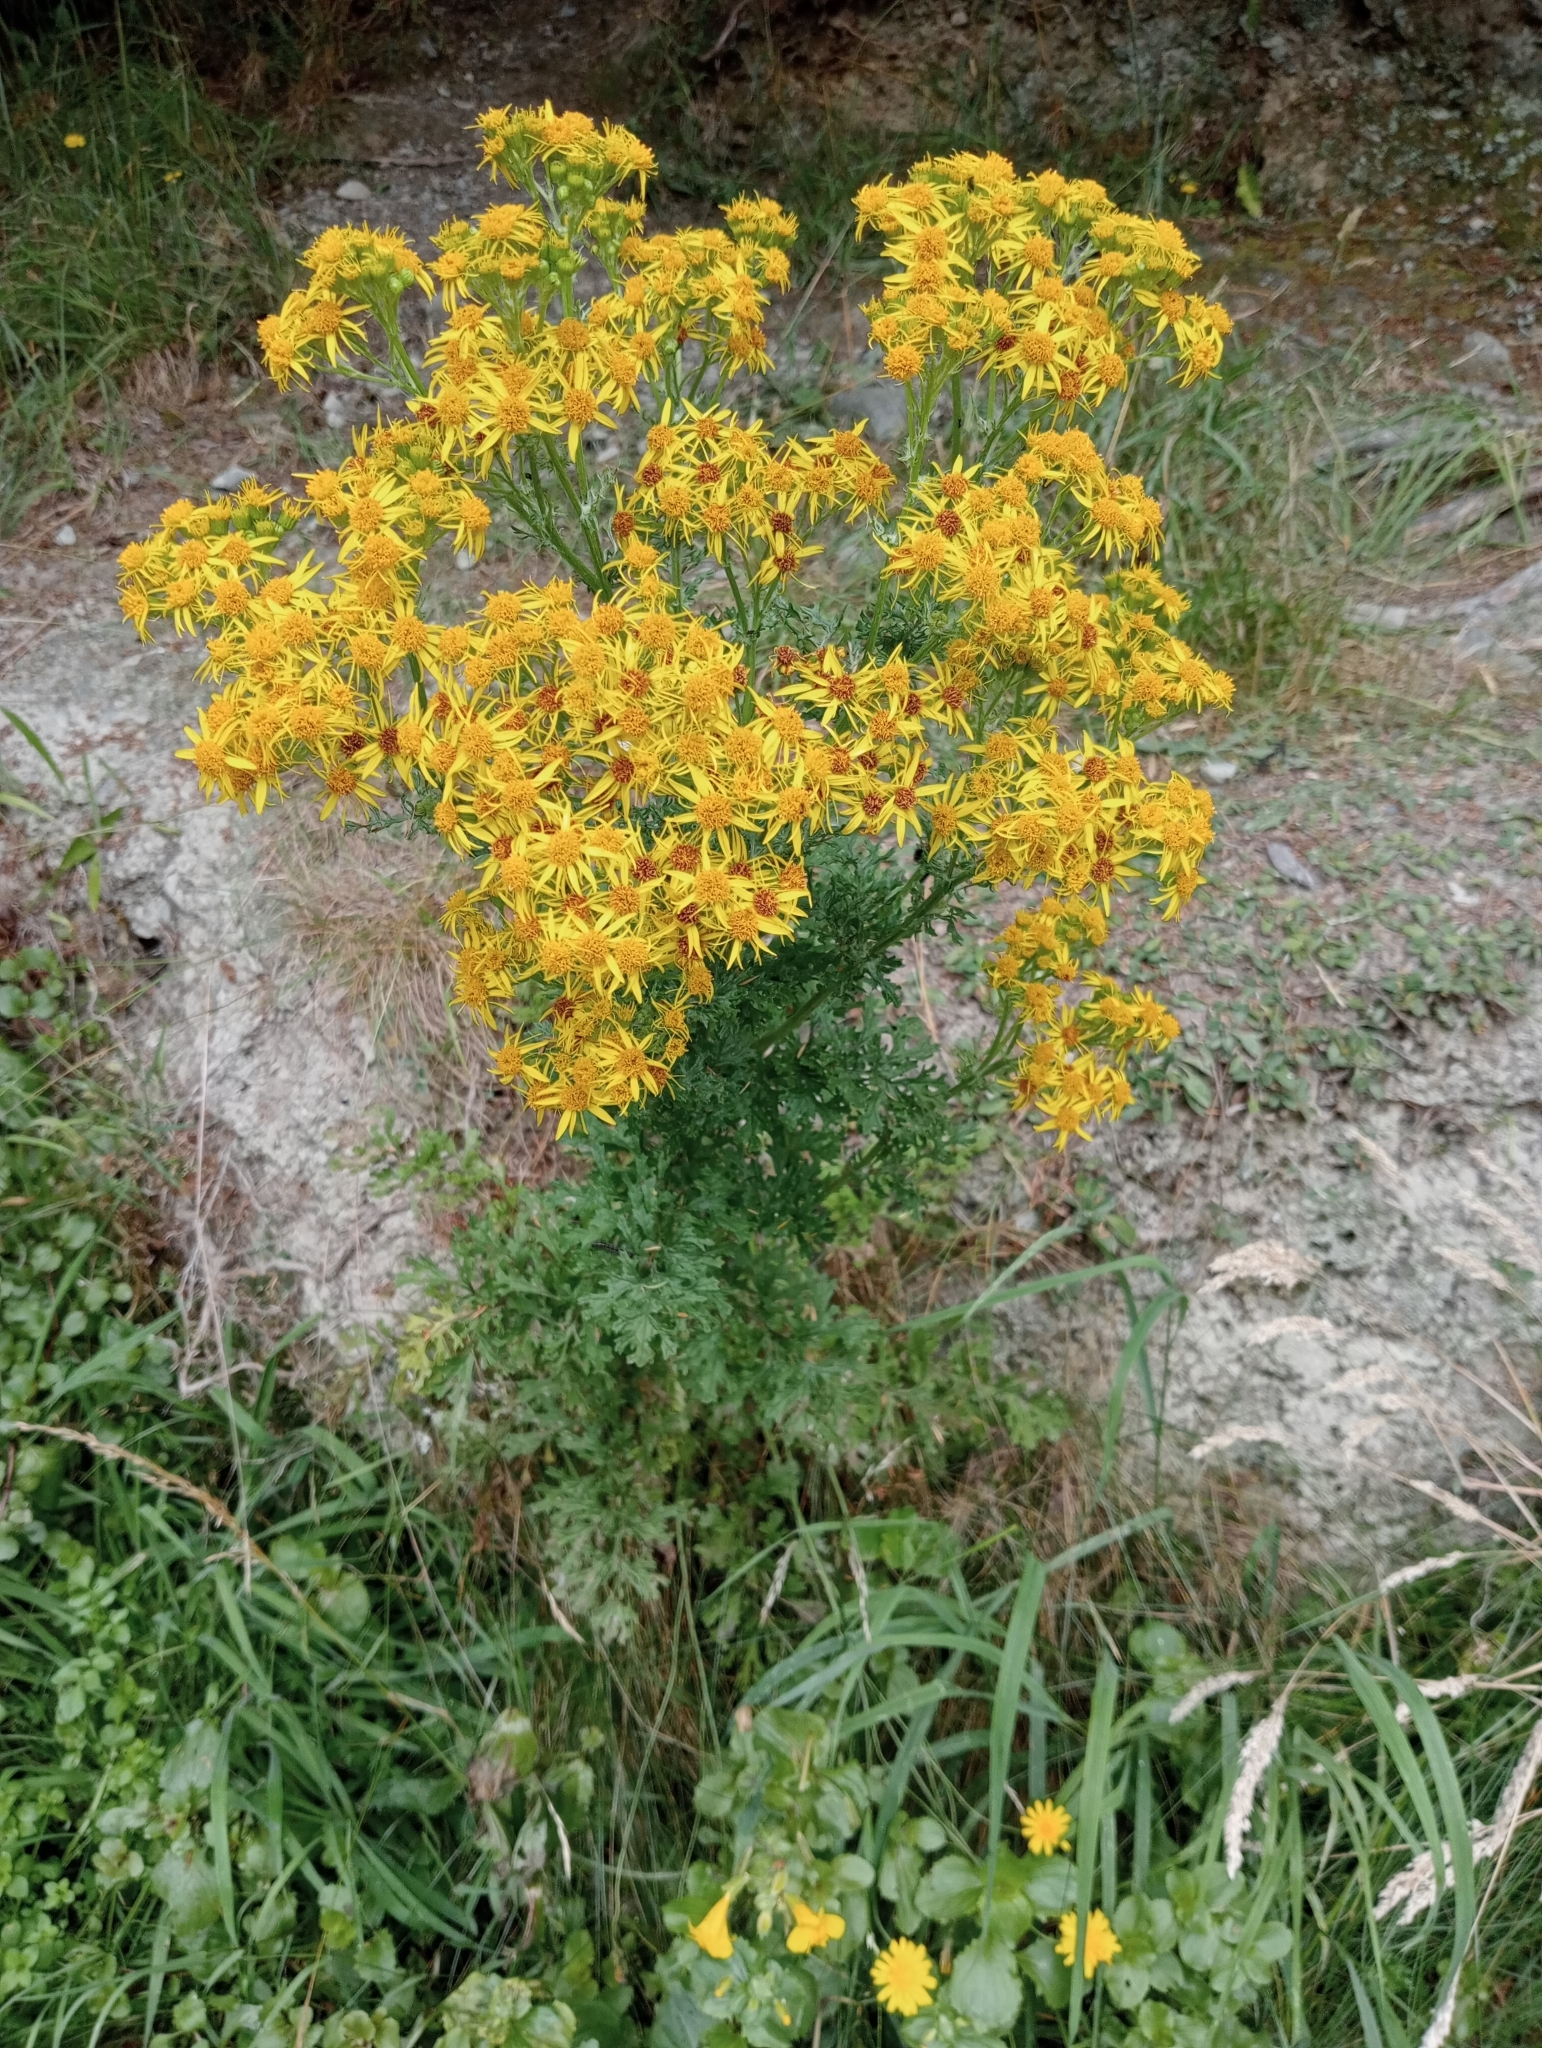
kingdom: Plantae
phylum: Tracheophyta
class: Magnoliopsida
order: Asterales
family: Asteraceae
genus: Jacobaea
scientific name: Jacobaea vulgaris
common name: Stinking willie
